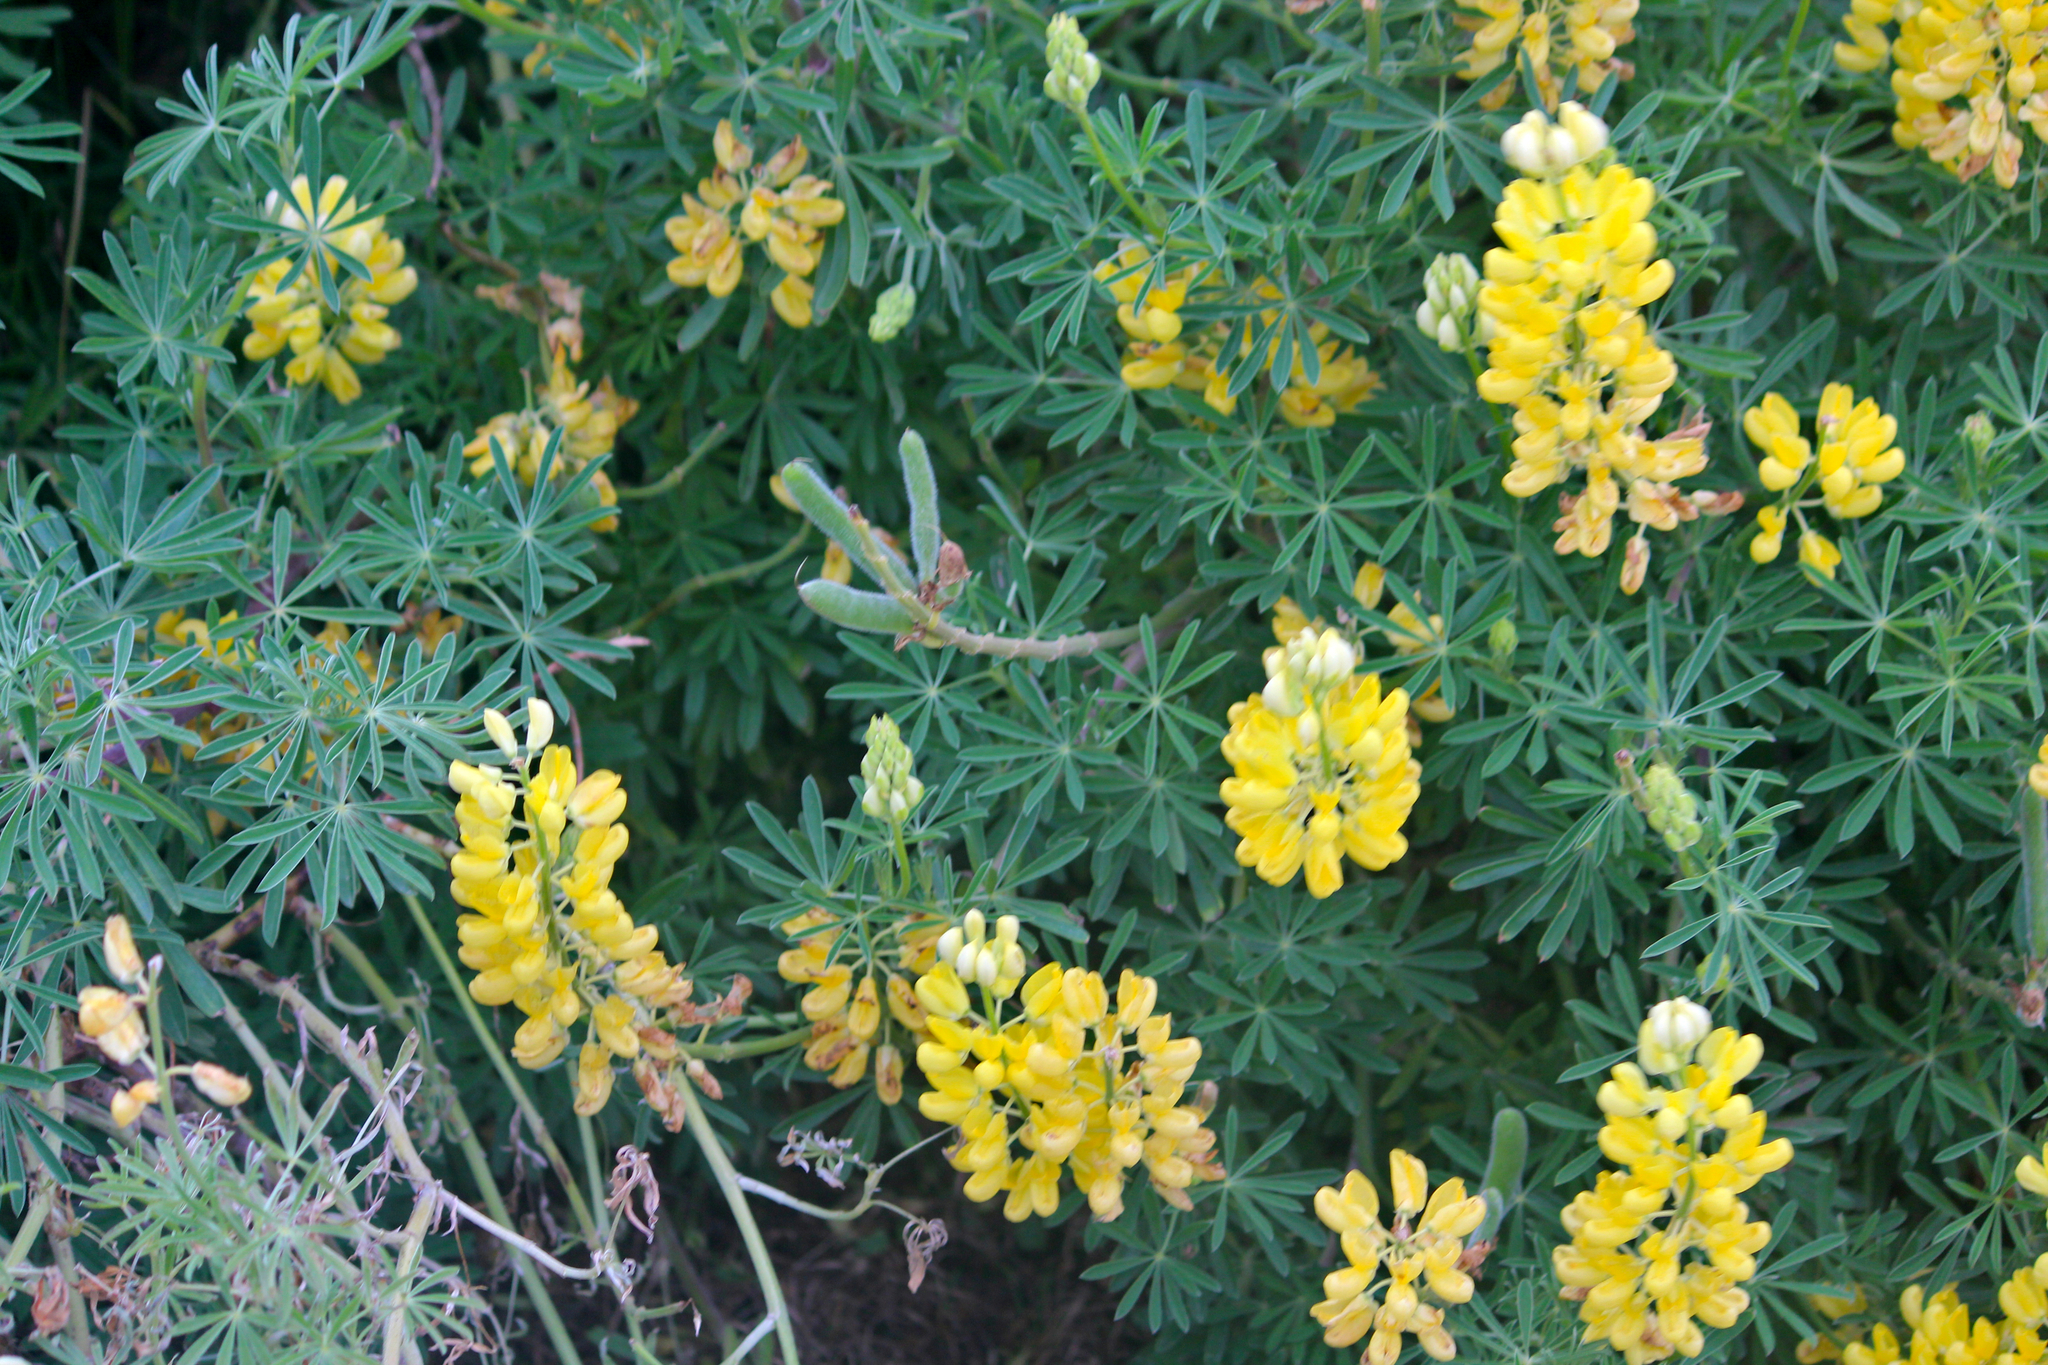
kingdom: Plantae
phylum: Tracheophyta
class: Magnoliopsida
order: Fabales
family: Fabaceae
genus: Lupinus
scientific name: Lupinus arboreus
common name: Yellow bush lupine
